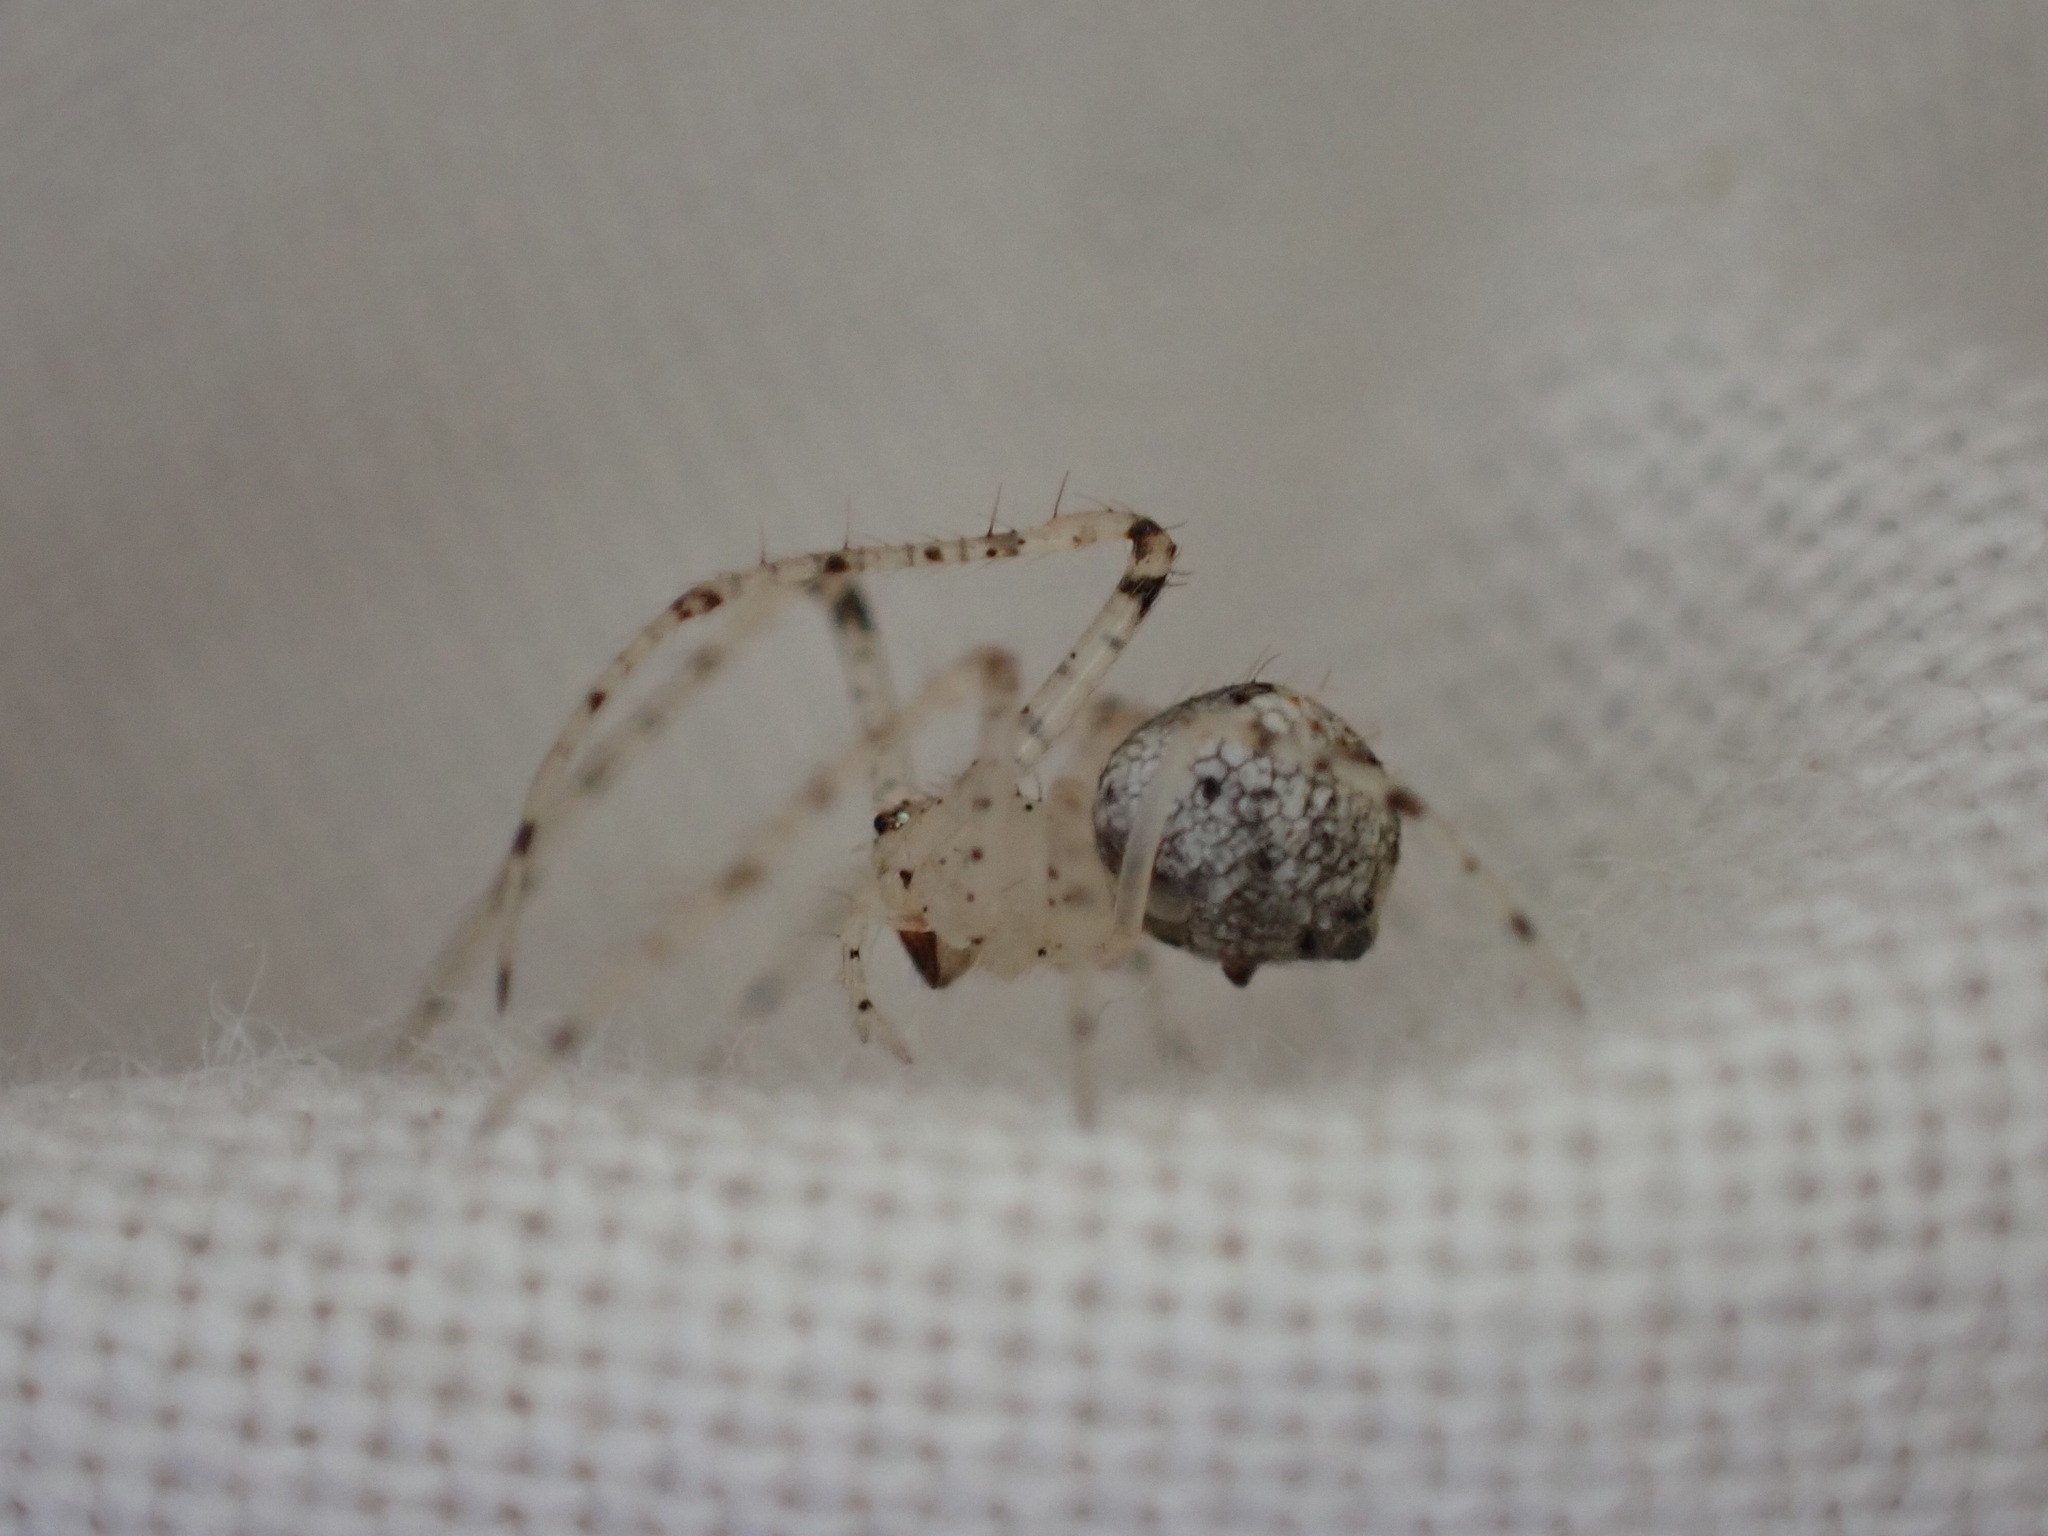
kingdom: Animalia
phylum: Arthropoda
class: Arachnida
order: Araneae
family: Mimetidae
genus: Mimetus
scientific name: Mimetus laevigatus
